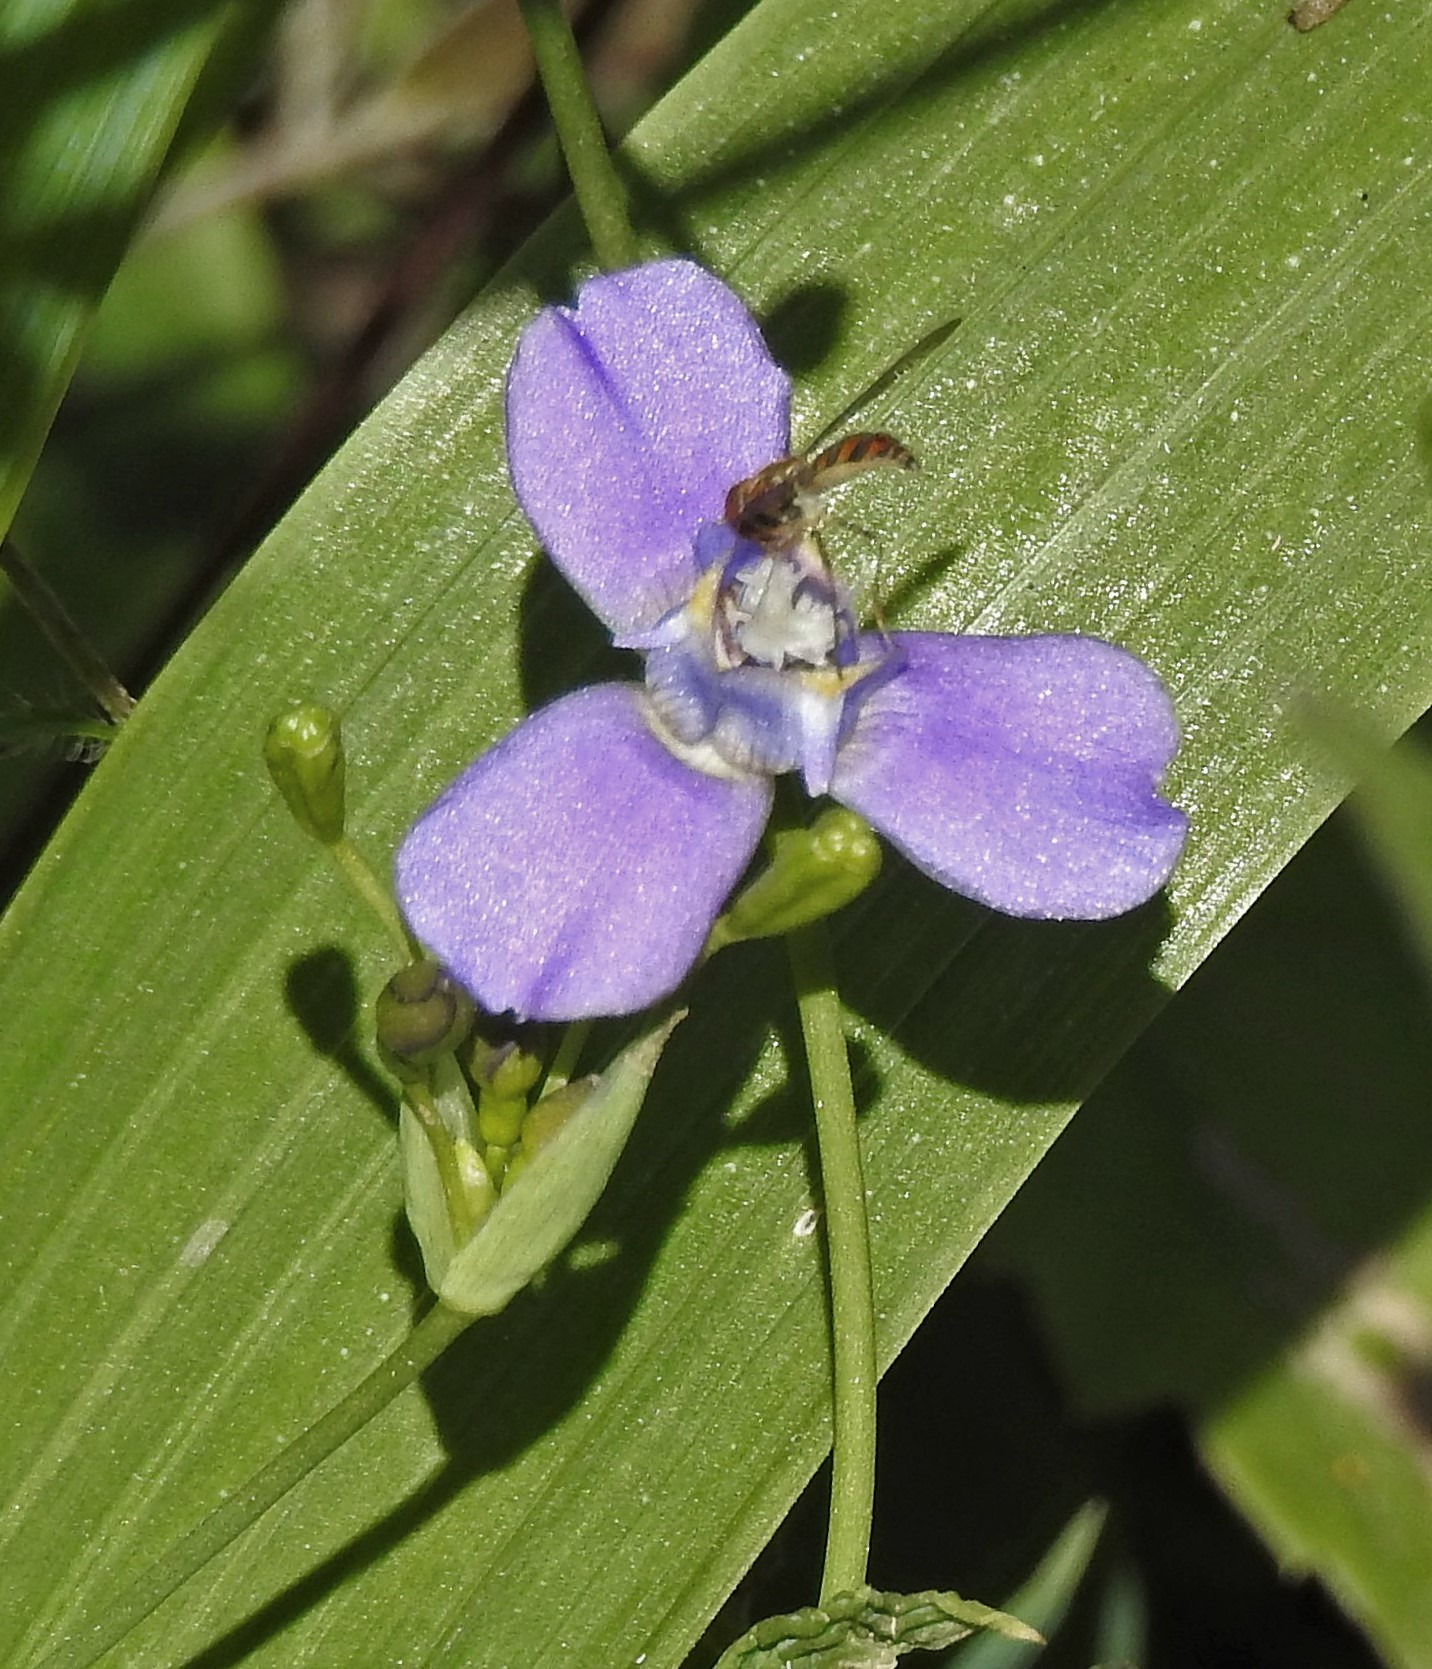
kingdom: Plantae
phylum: Tracheophyta
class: Liliopsida
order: Asparagales
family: Iridaceae
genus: Ennealophus
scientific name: Ennealophus euryandrus
